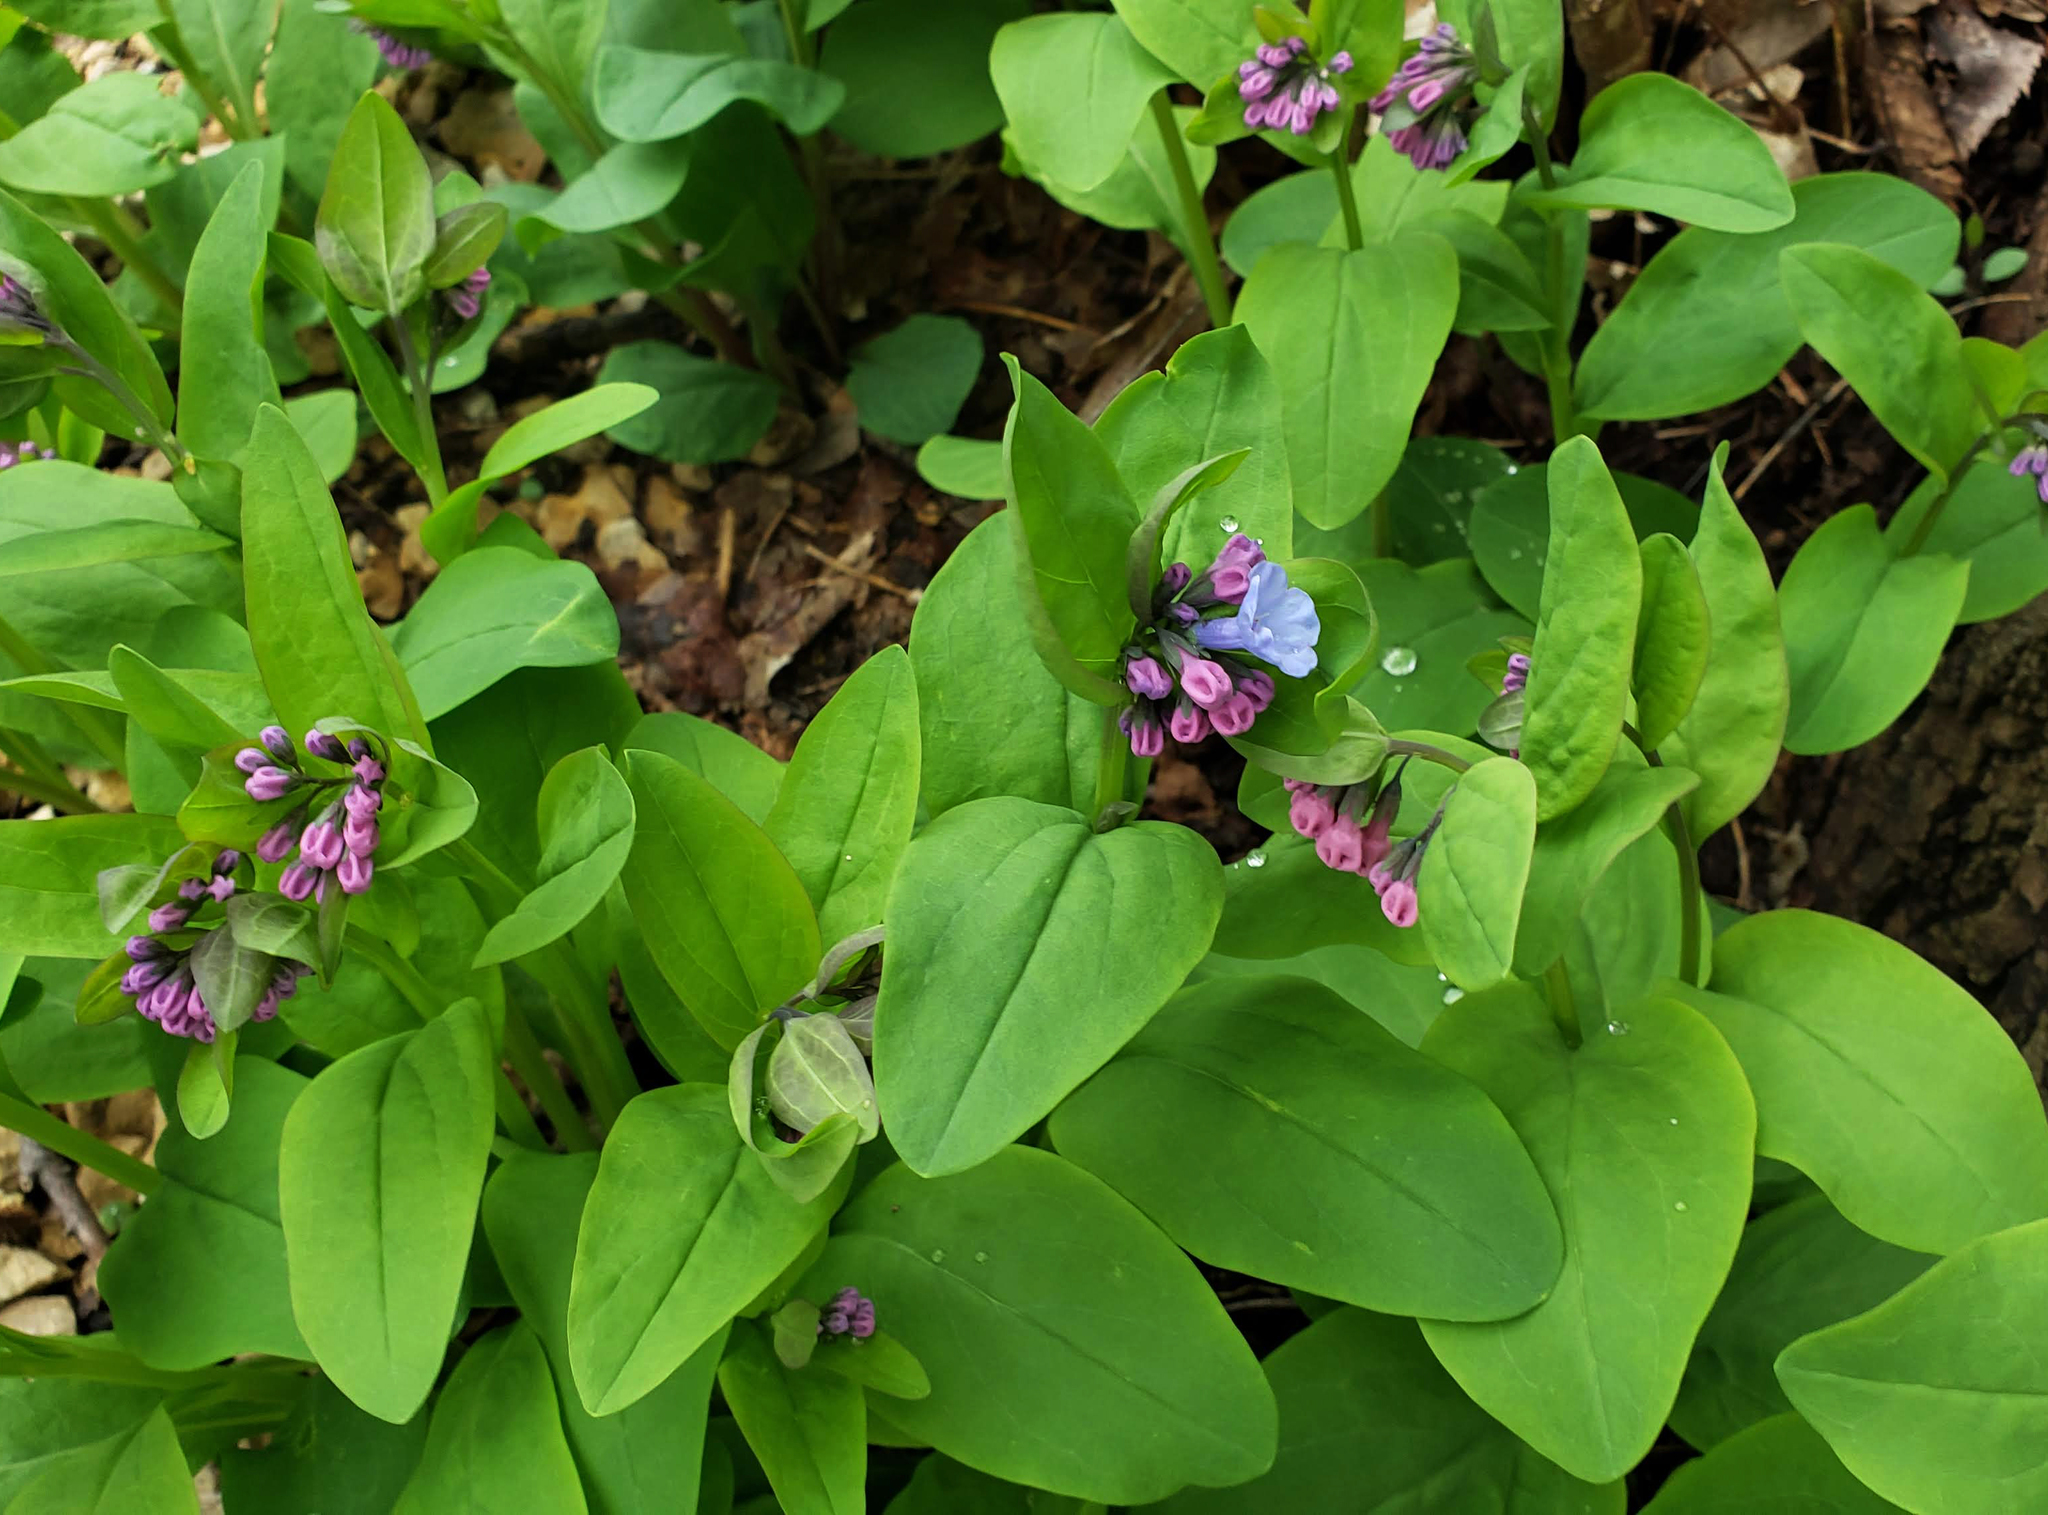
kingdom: Plantae
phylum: Tracheophyta
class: Magnoliopsida
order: Boraginales
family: Boraginaceae
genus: Mertensia
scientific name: Mertensia virginica
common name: Virginia bluebells
